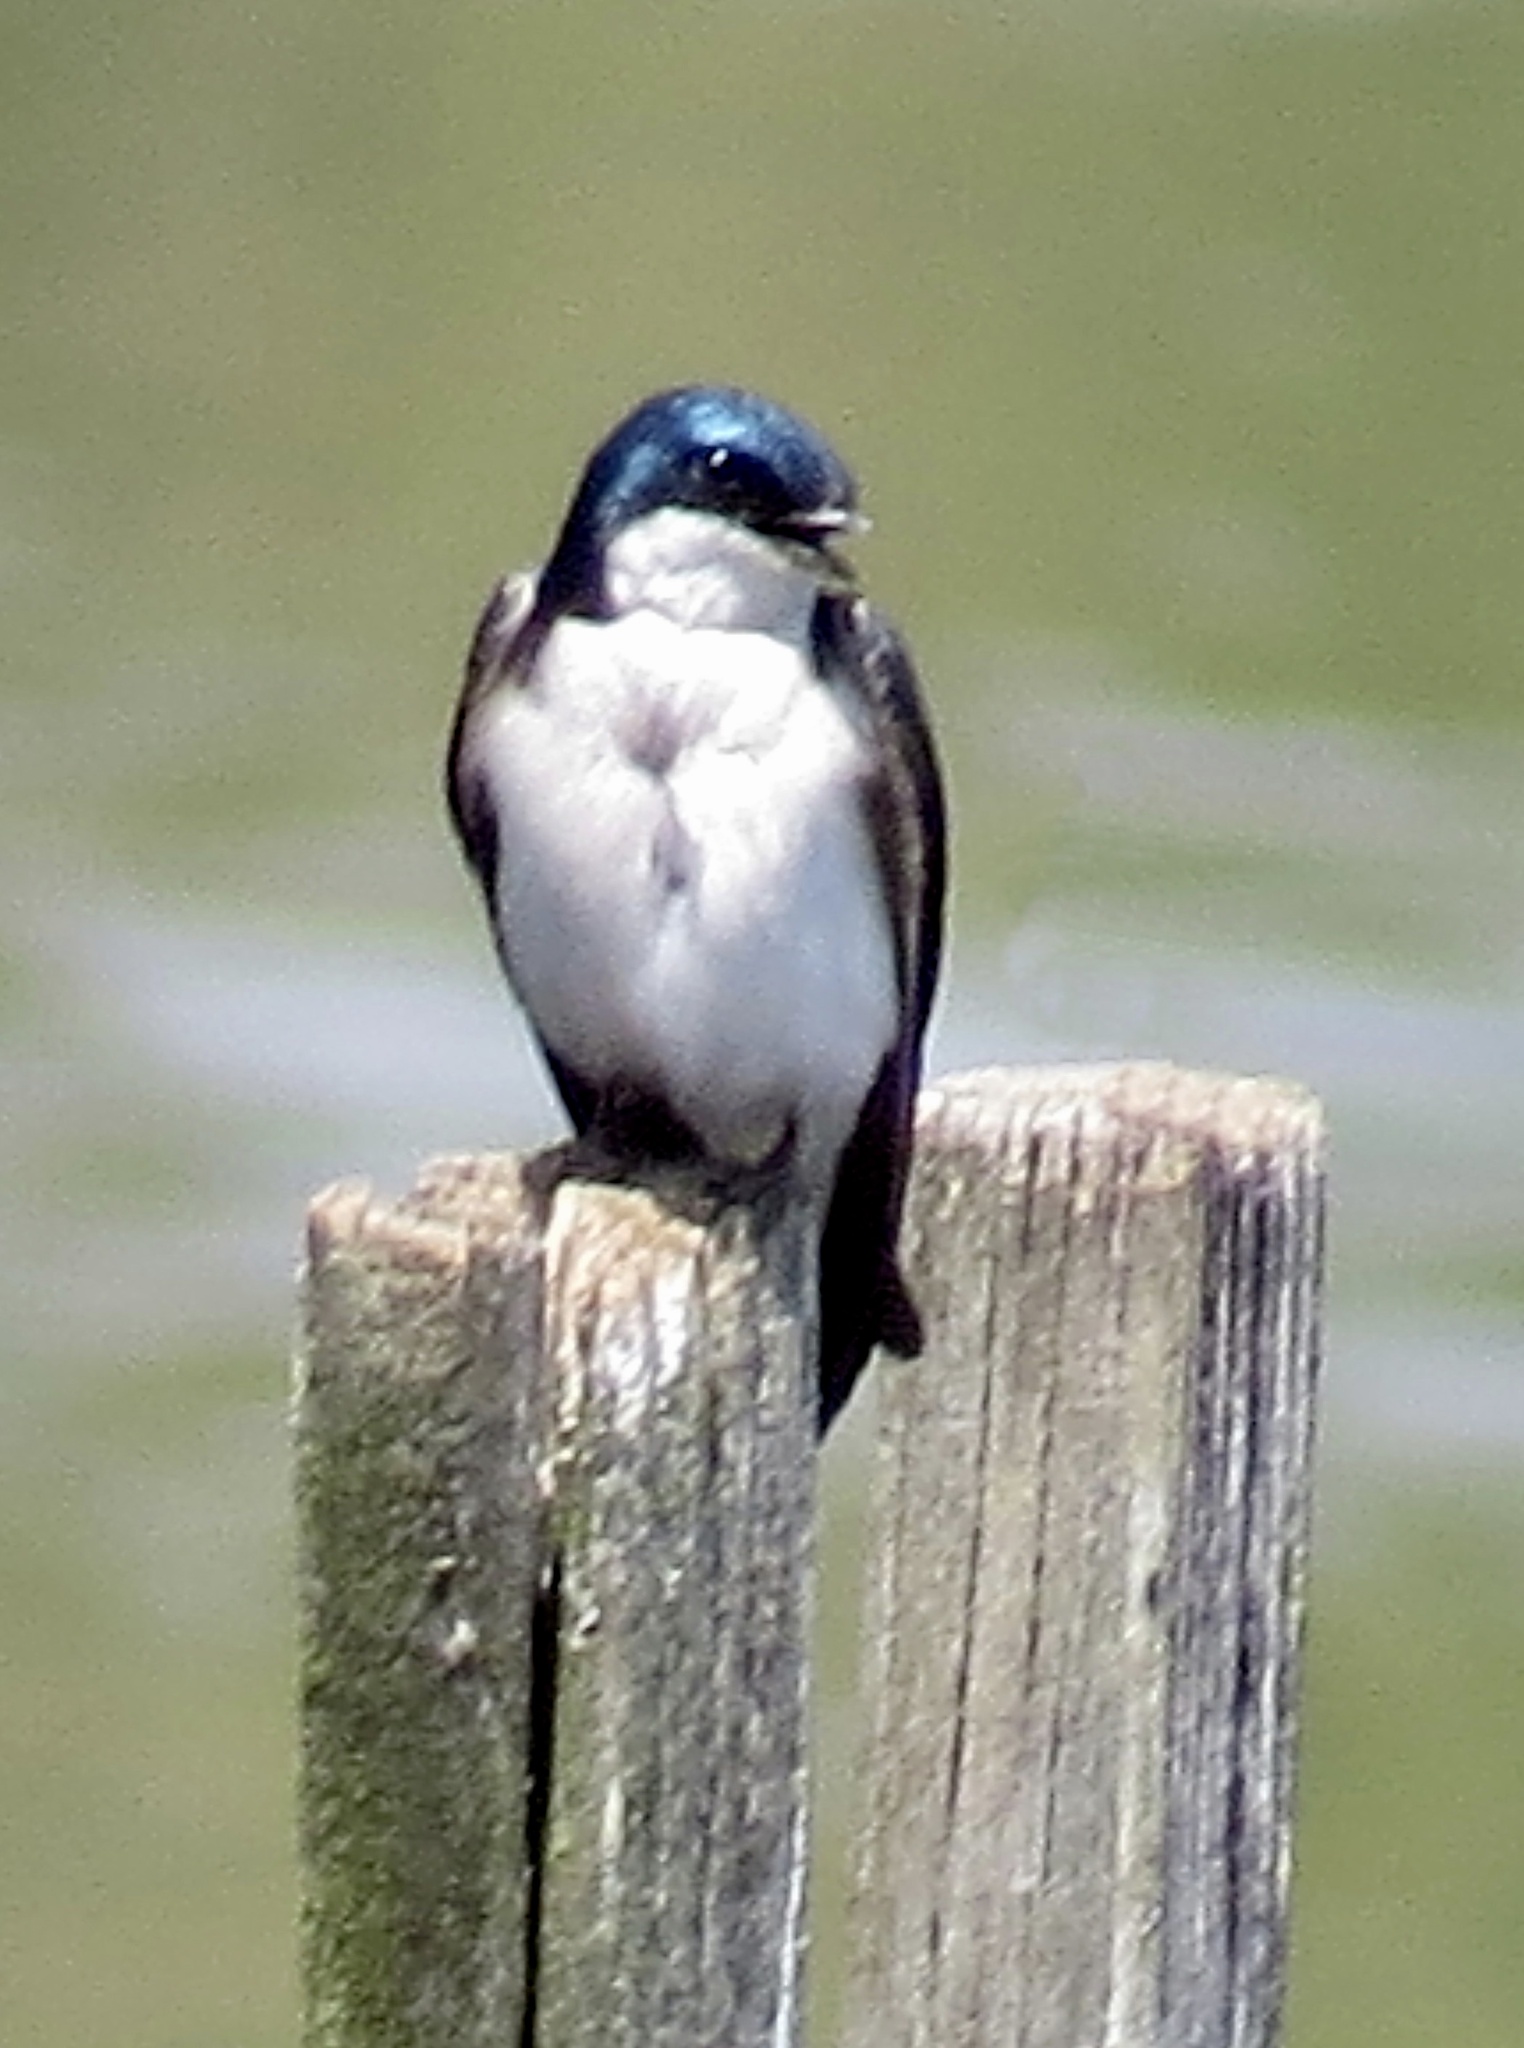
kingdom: Animalia
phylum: Chordata
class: Aves
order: Passeriformes
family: Hirundinidae
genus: Tachycineta
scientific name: Tachycineta bicolor
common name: Tree swallow
